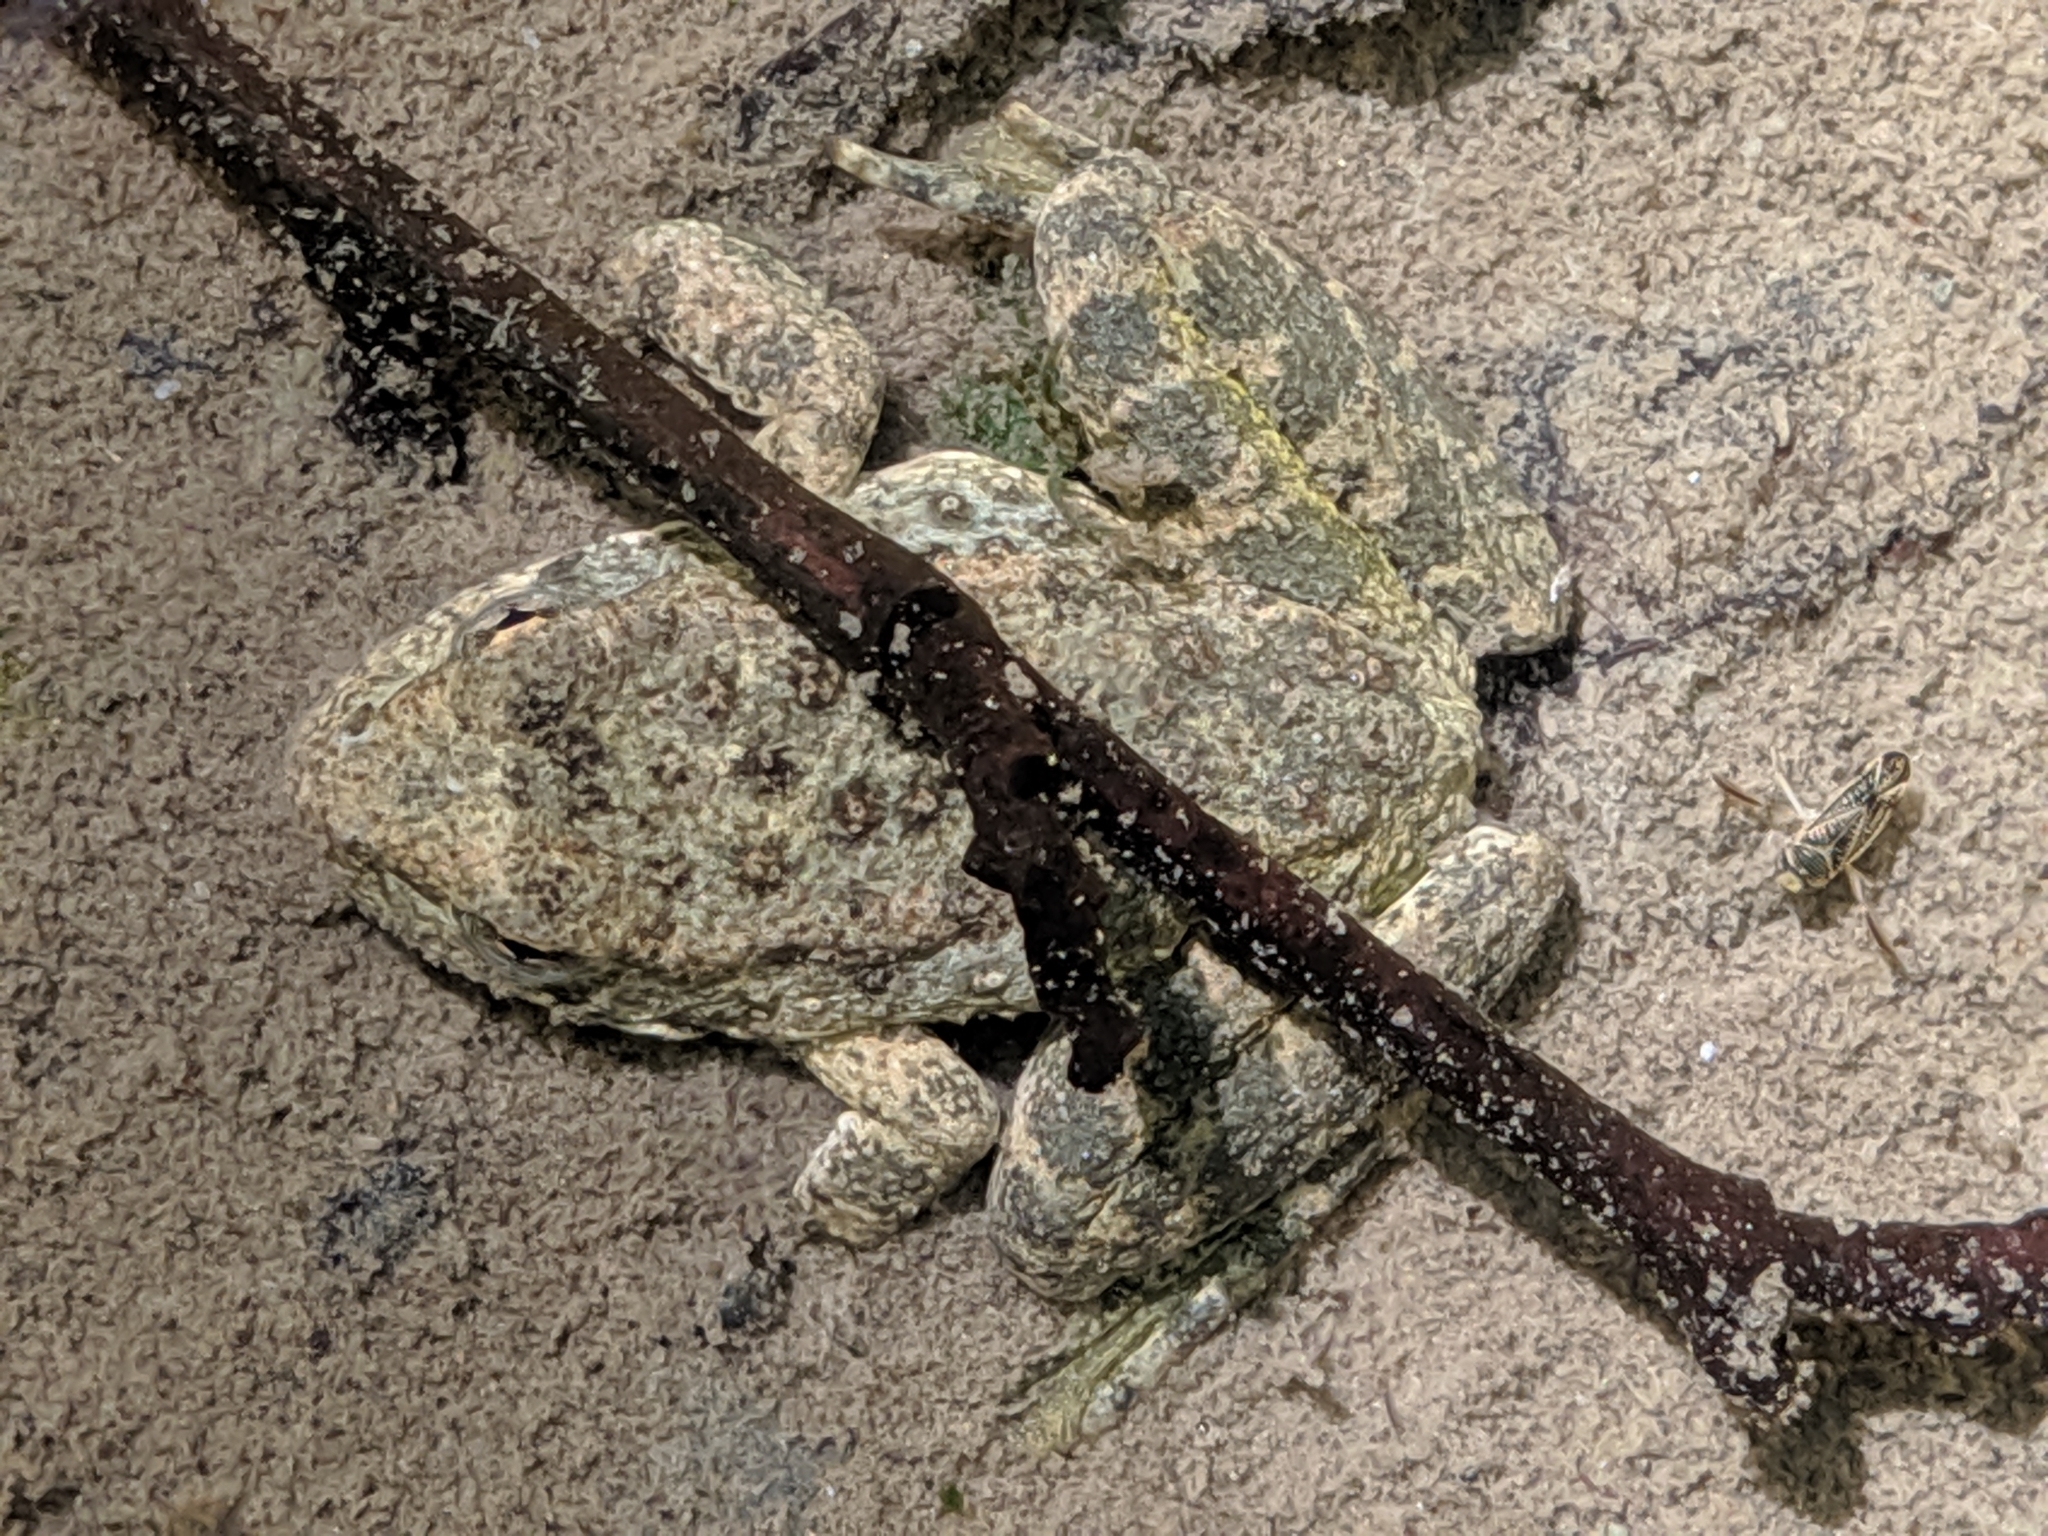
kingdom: Animalia
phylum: Chordata
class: Amphibia
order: Anura
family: Ranidae
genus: Rana
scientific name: Rana boylii
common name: Foothill yellow-legged frog
